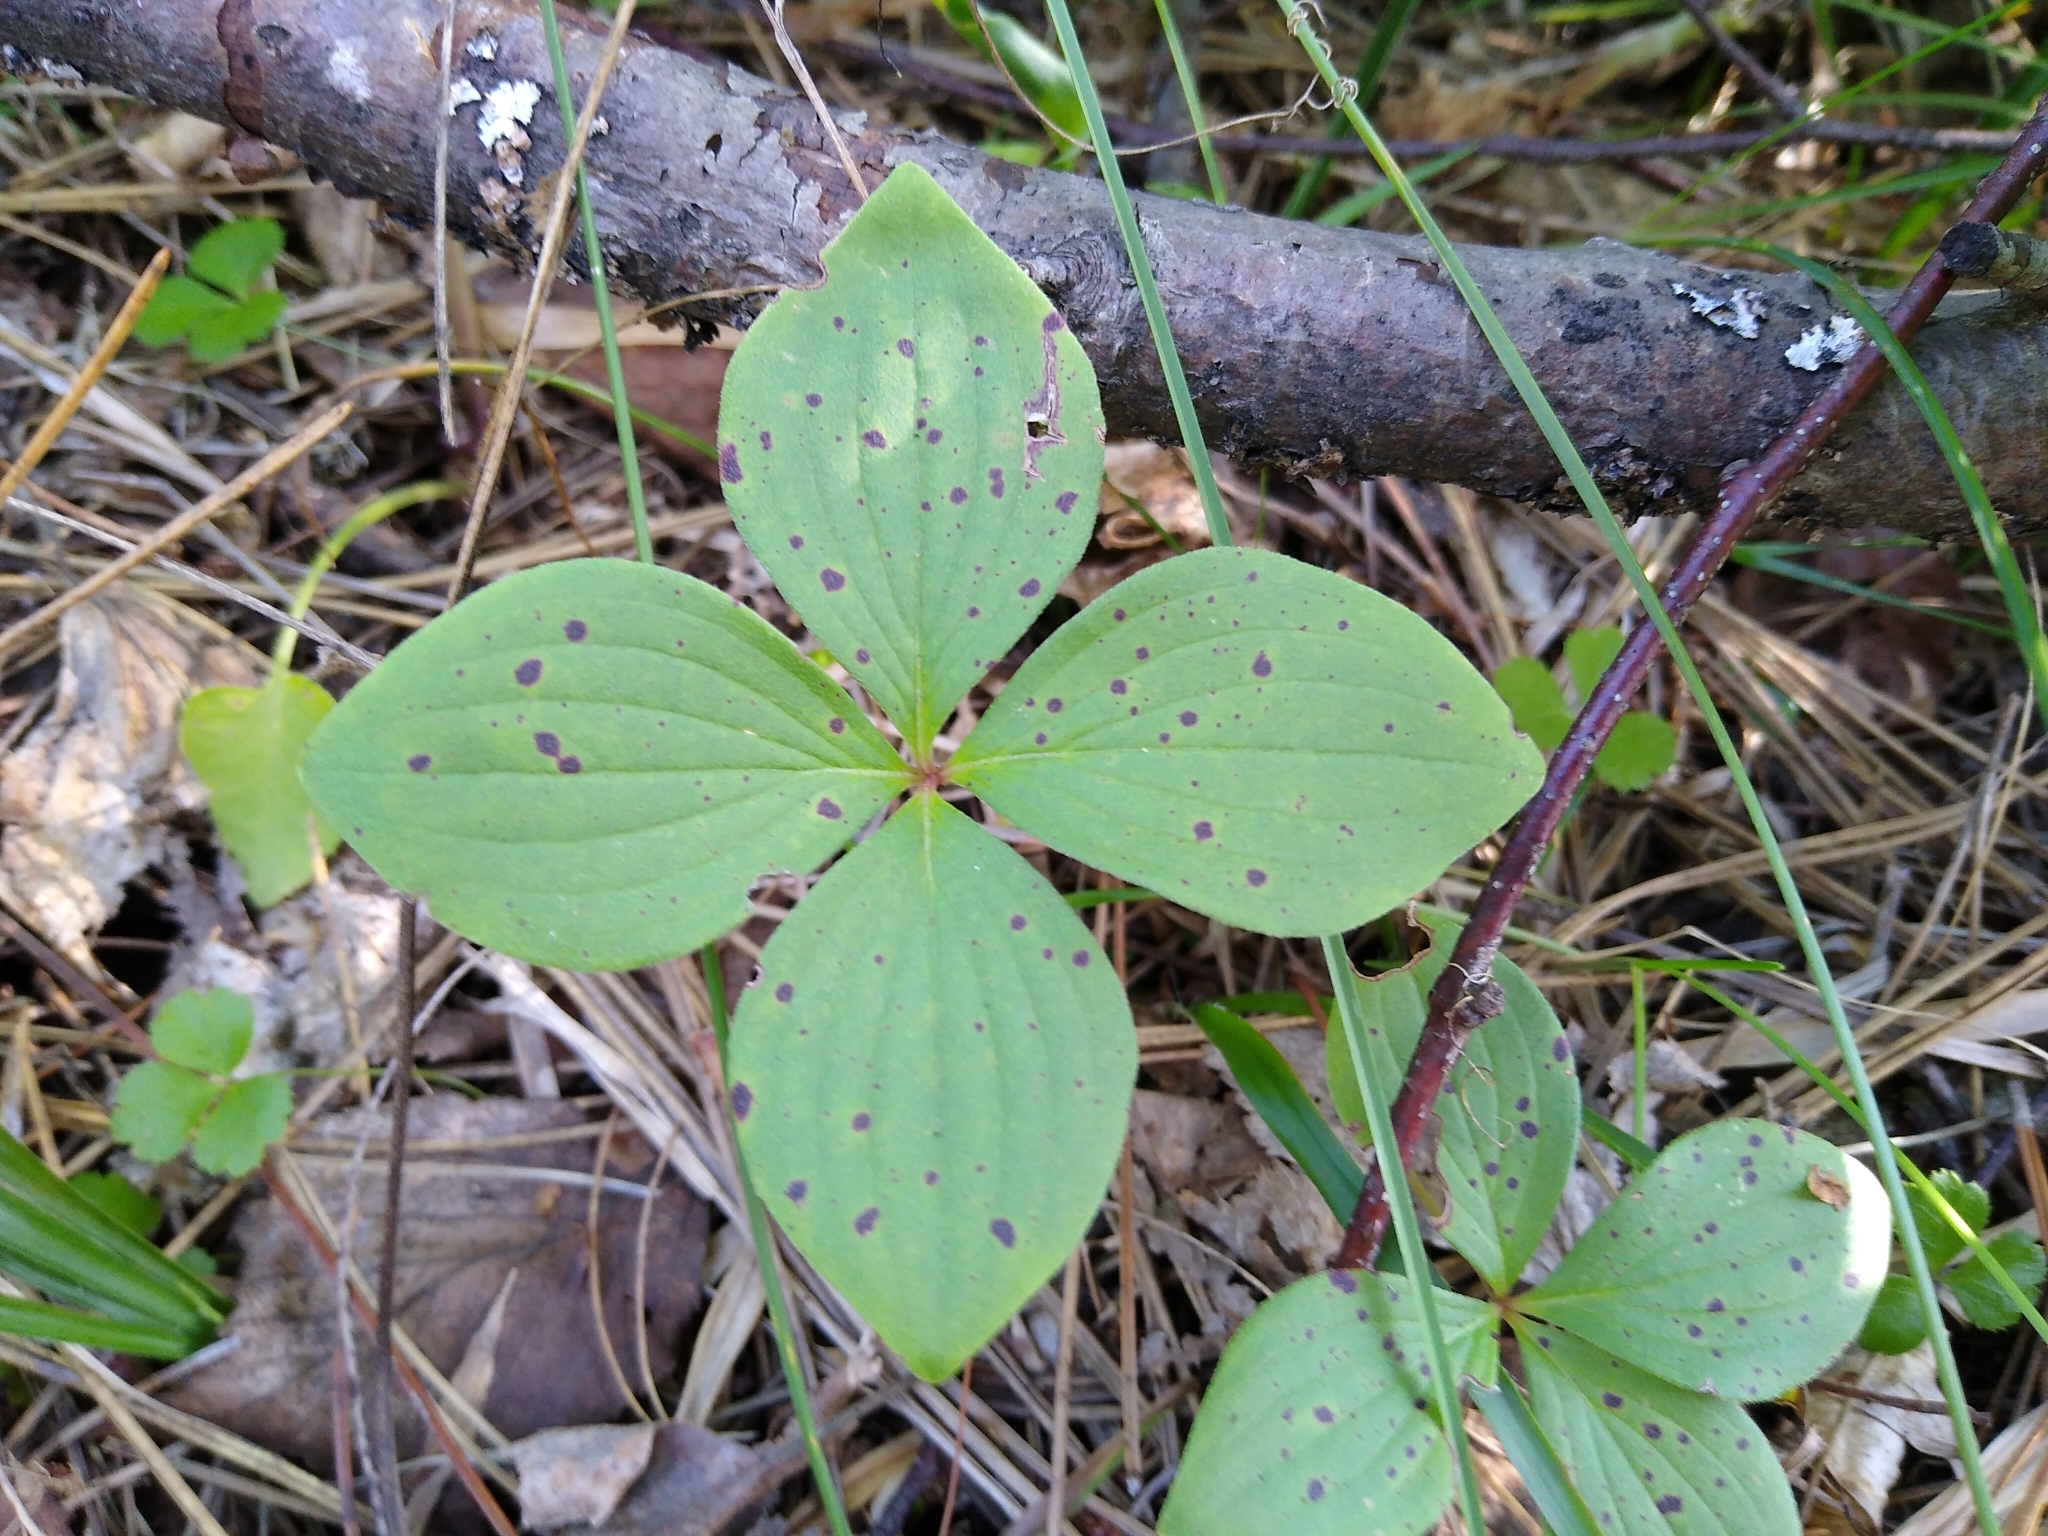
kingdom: Plantae
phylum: Tracheophyta
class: Magnoliopsida
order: Cornales
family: Cornaceae
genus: Cornus
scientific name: Cornus canadensis
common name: Creeping dogwood
